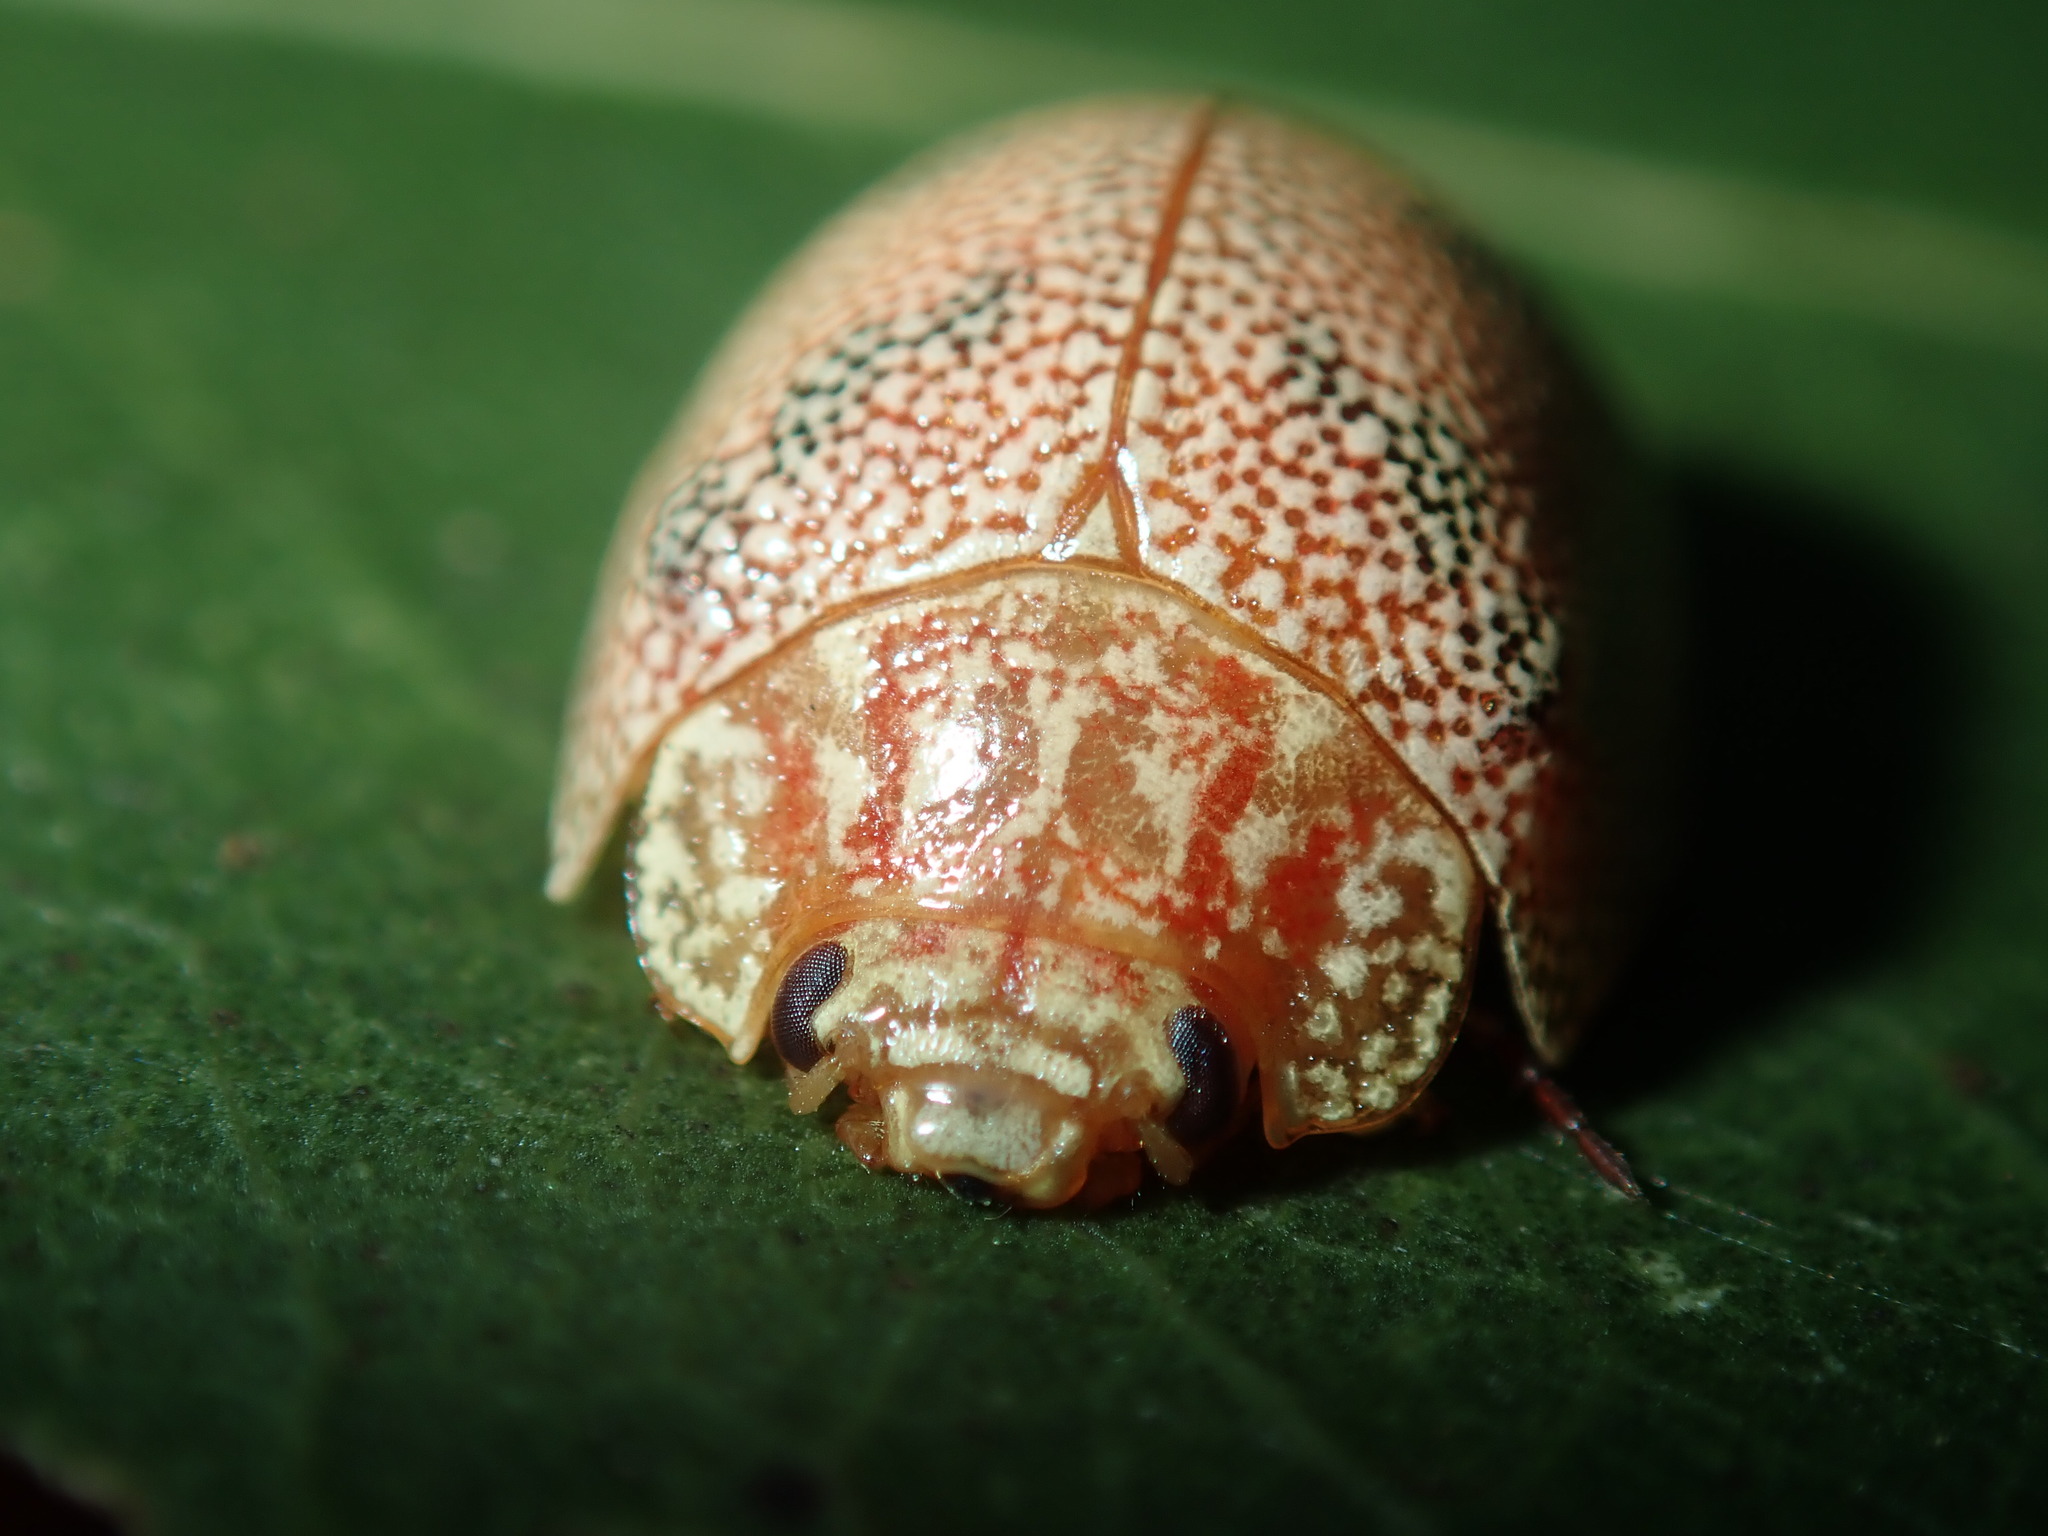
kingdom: Animalia
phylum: Arthropoda
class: Insecta
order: Coleoptera
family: Chrysomelidae
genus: Paropsis
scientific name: Paropsis
